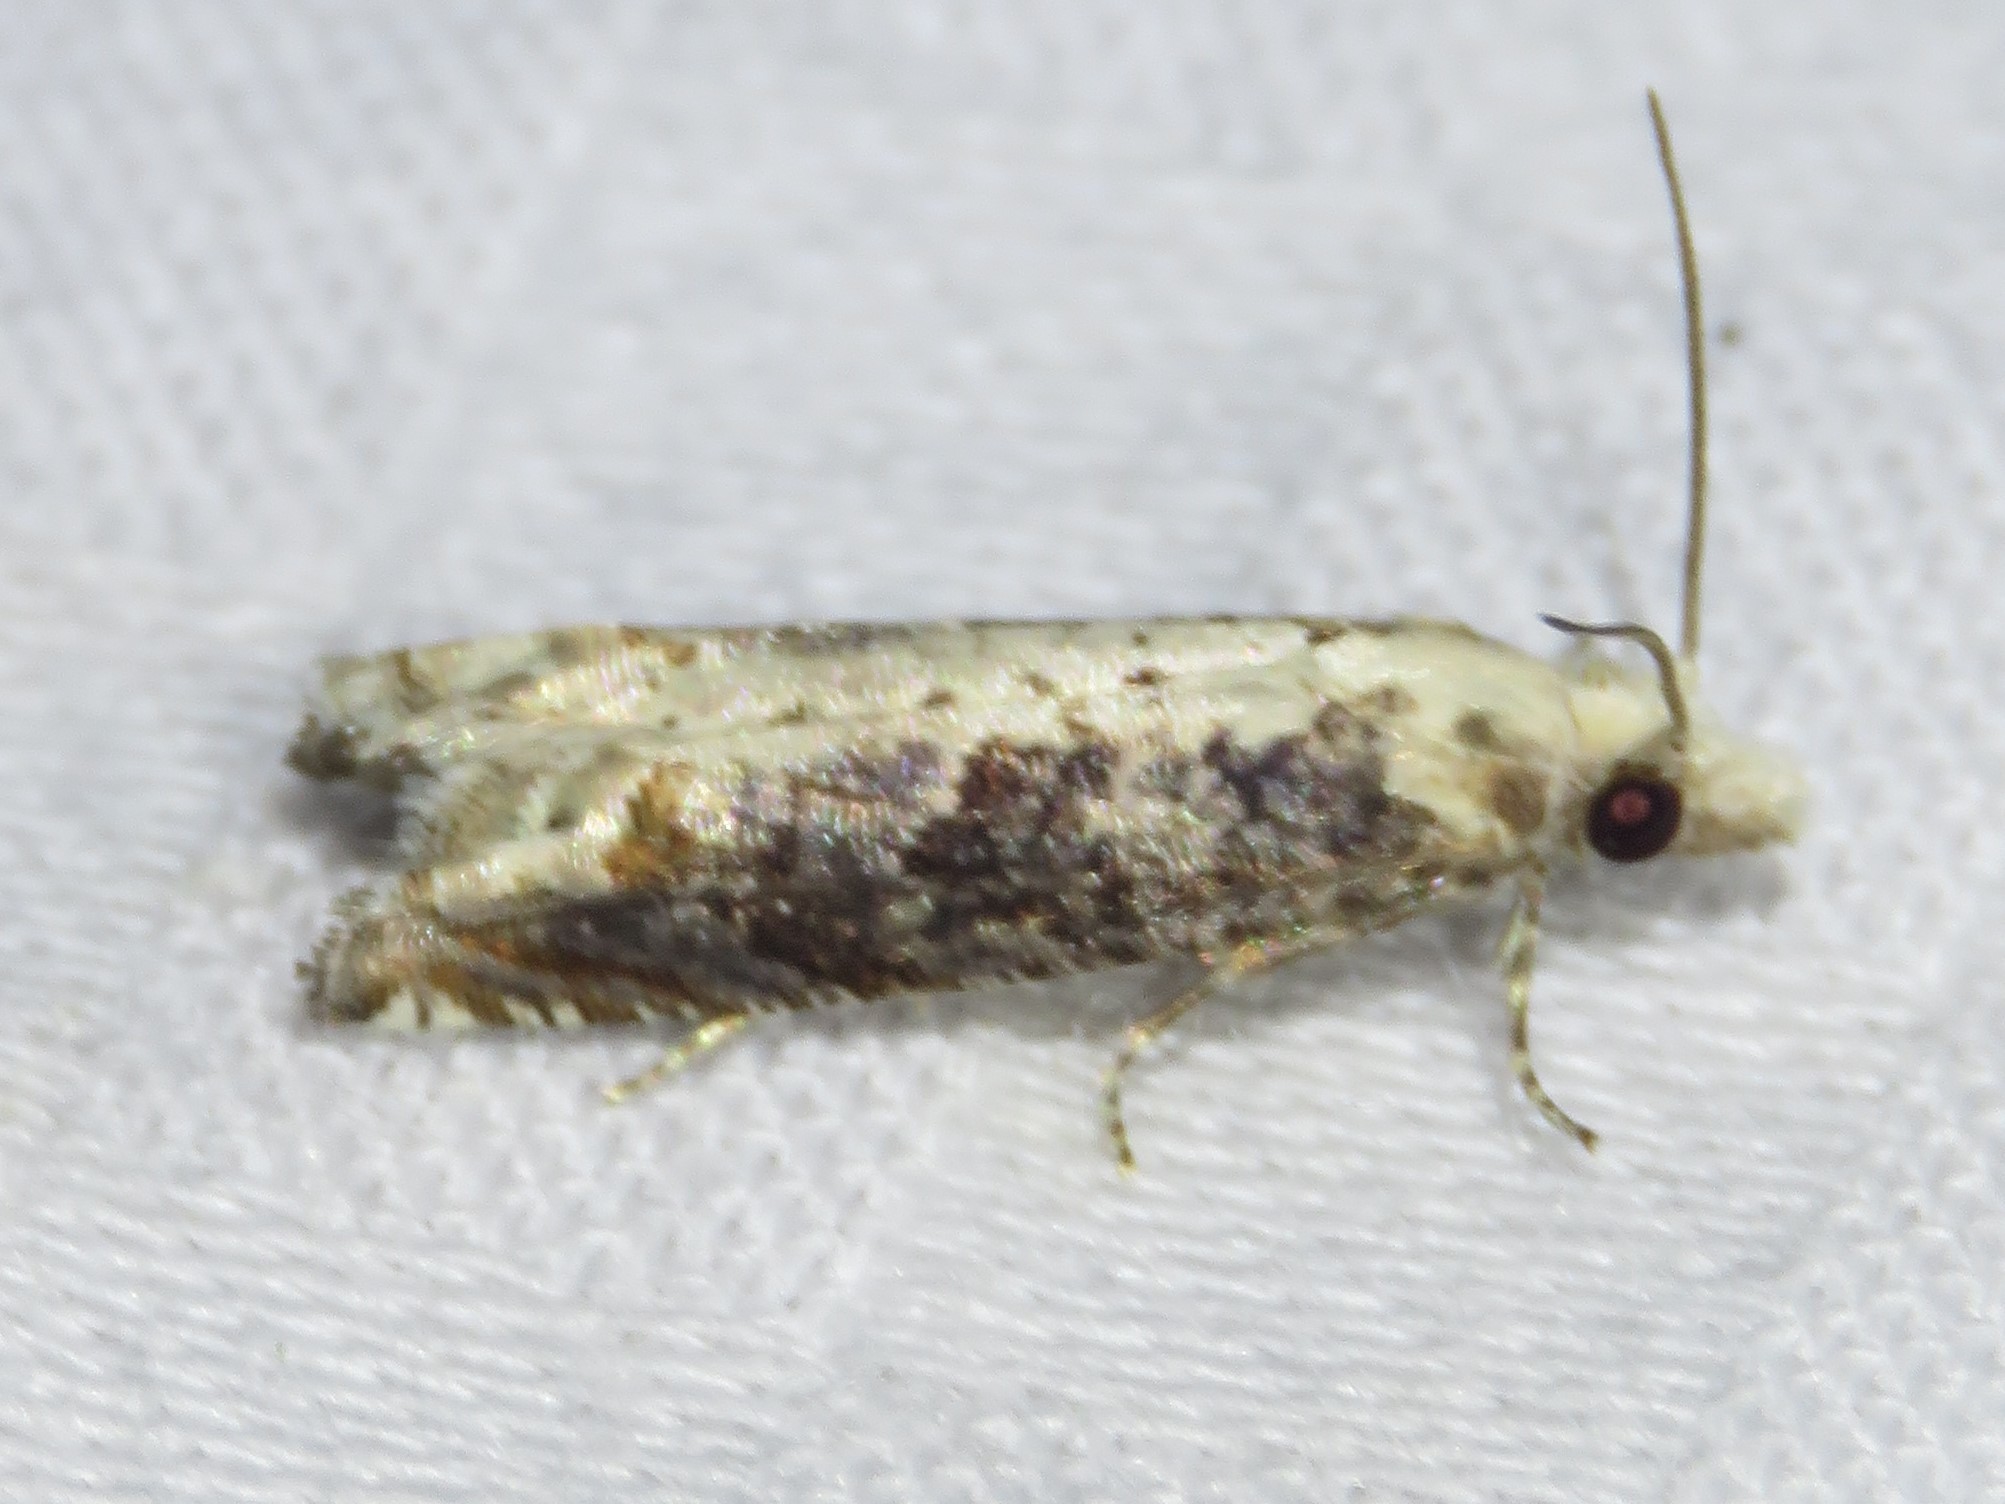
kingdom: Animalia
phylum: Arthropoda
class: Insecta
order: Lepidoptera
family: Tortricidae
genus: Suleima
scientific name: Suleima cinerodorsana
